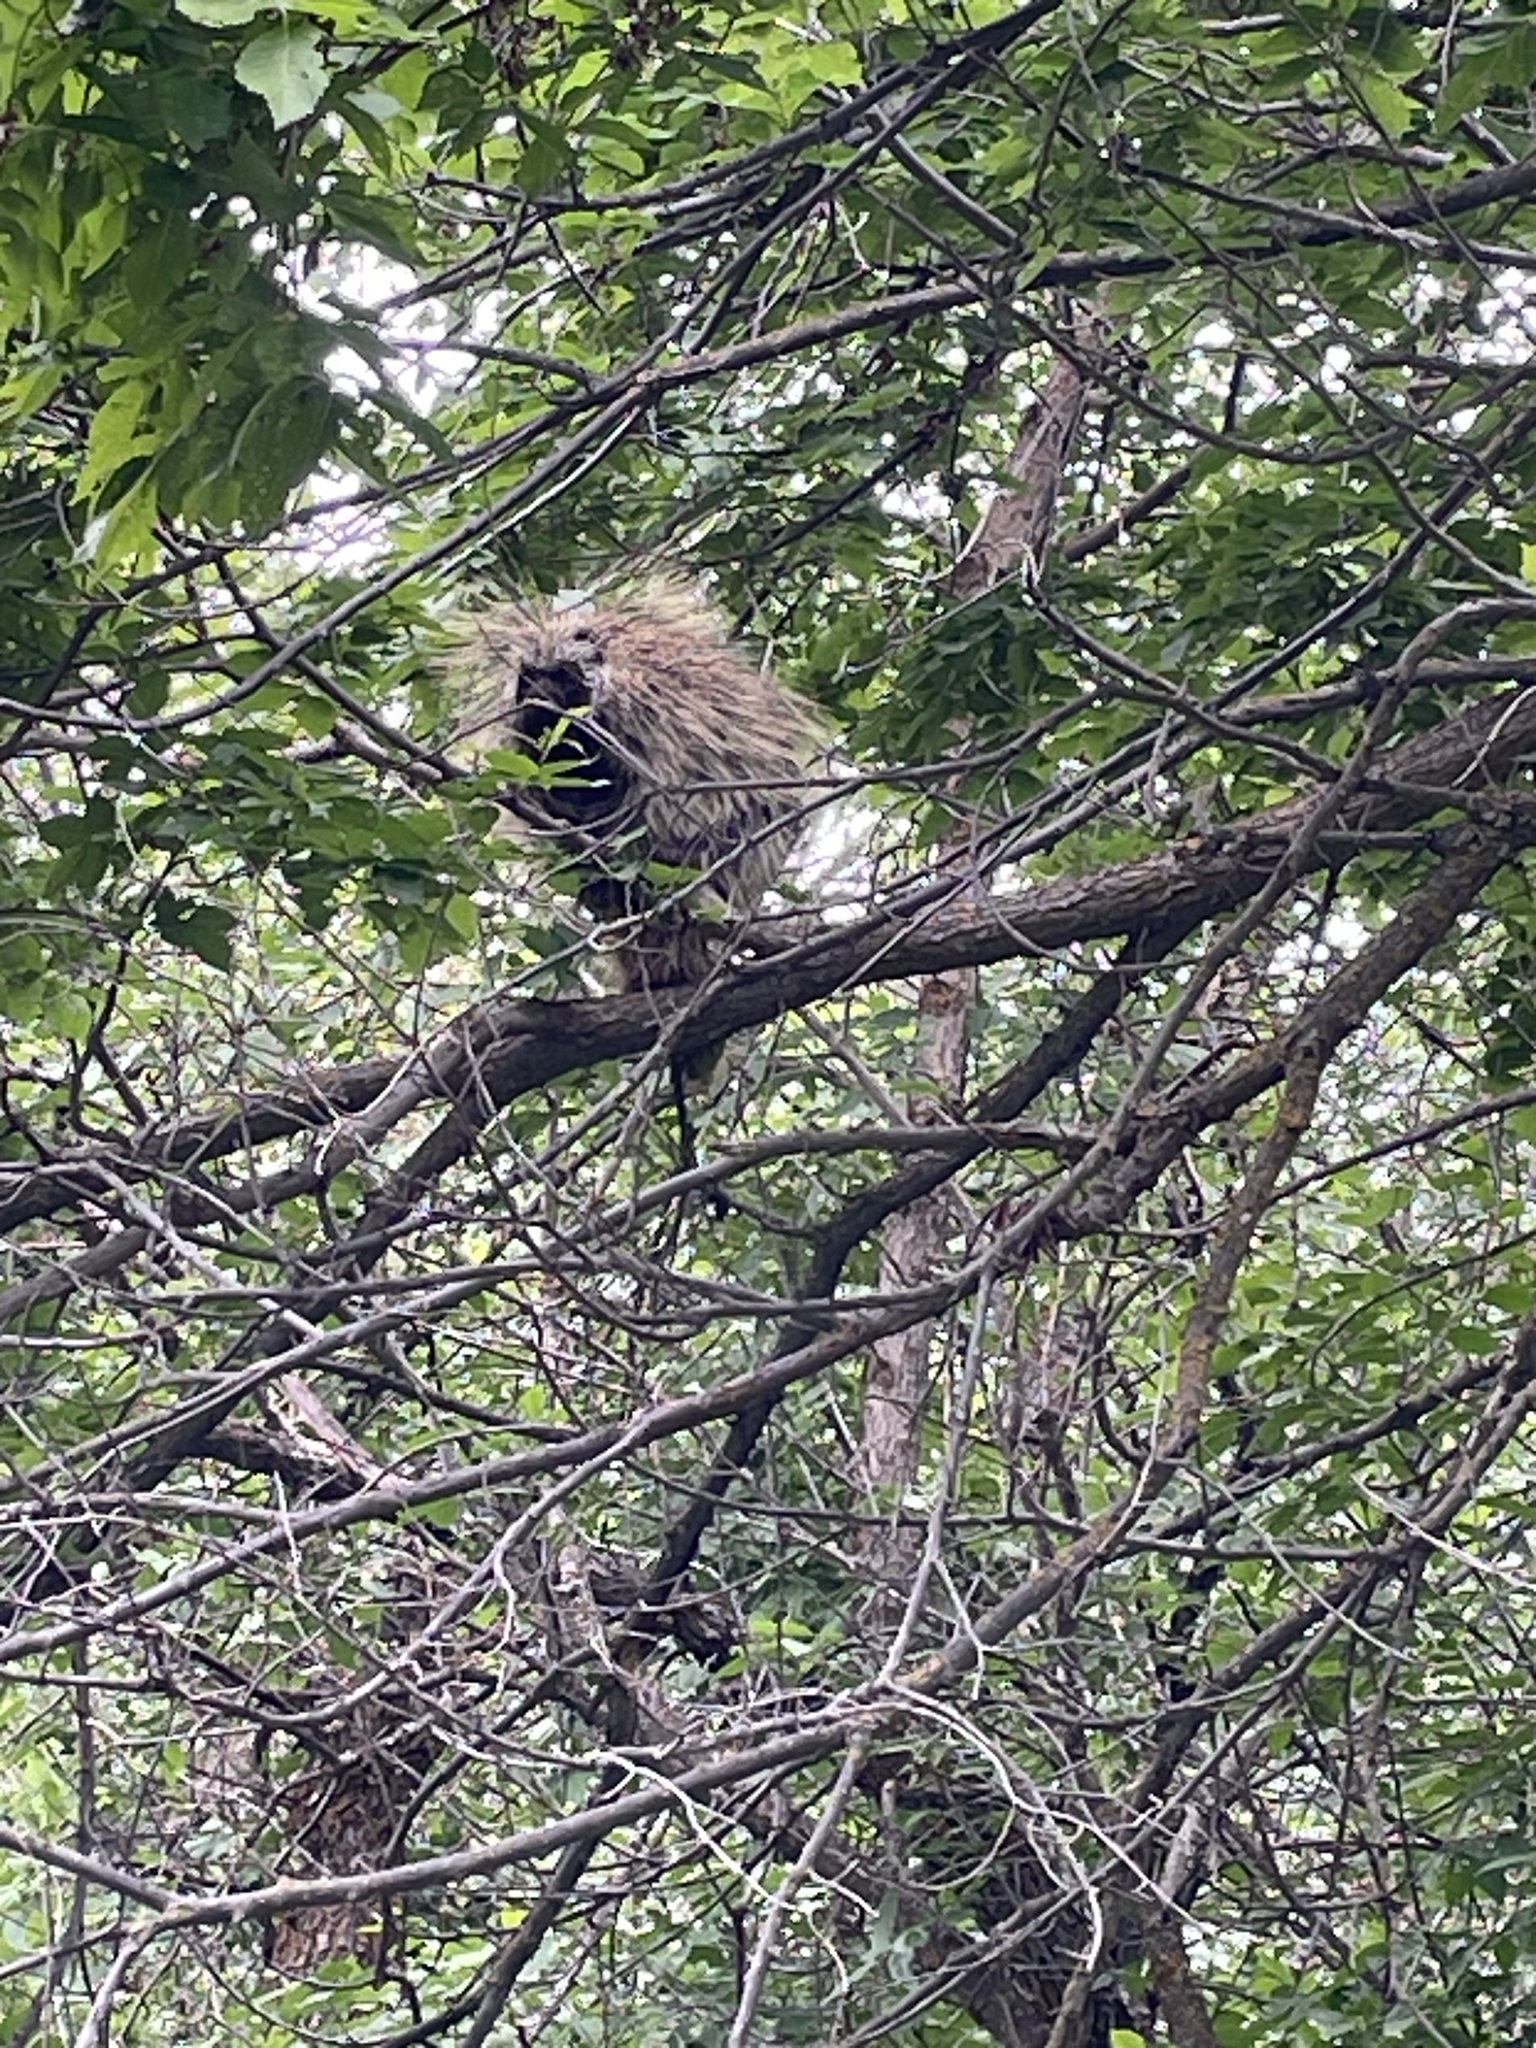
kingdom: Animalia
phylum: Chordata
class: Mammalia
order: Rodentia
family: Erethizontidae
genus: Erethizon
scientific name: Erethizon dorsatus
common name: North american porcupine
